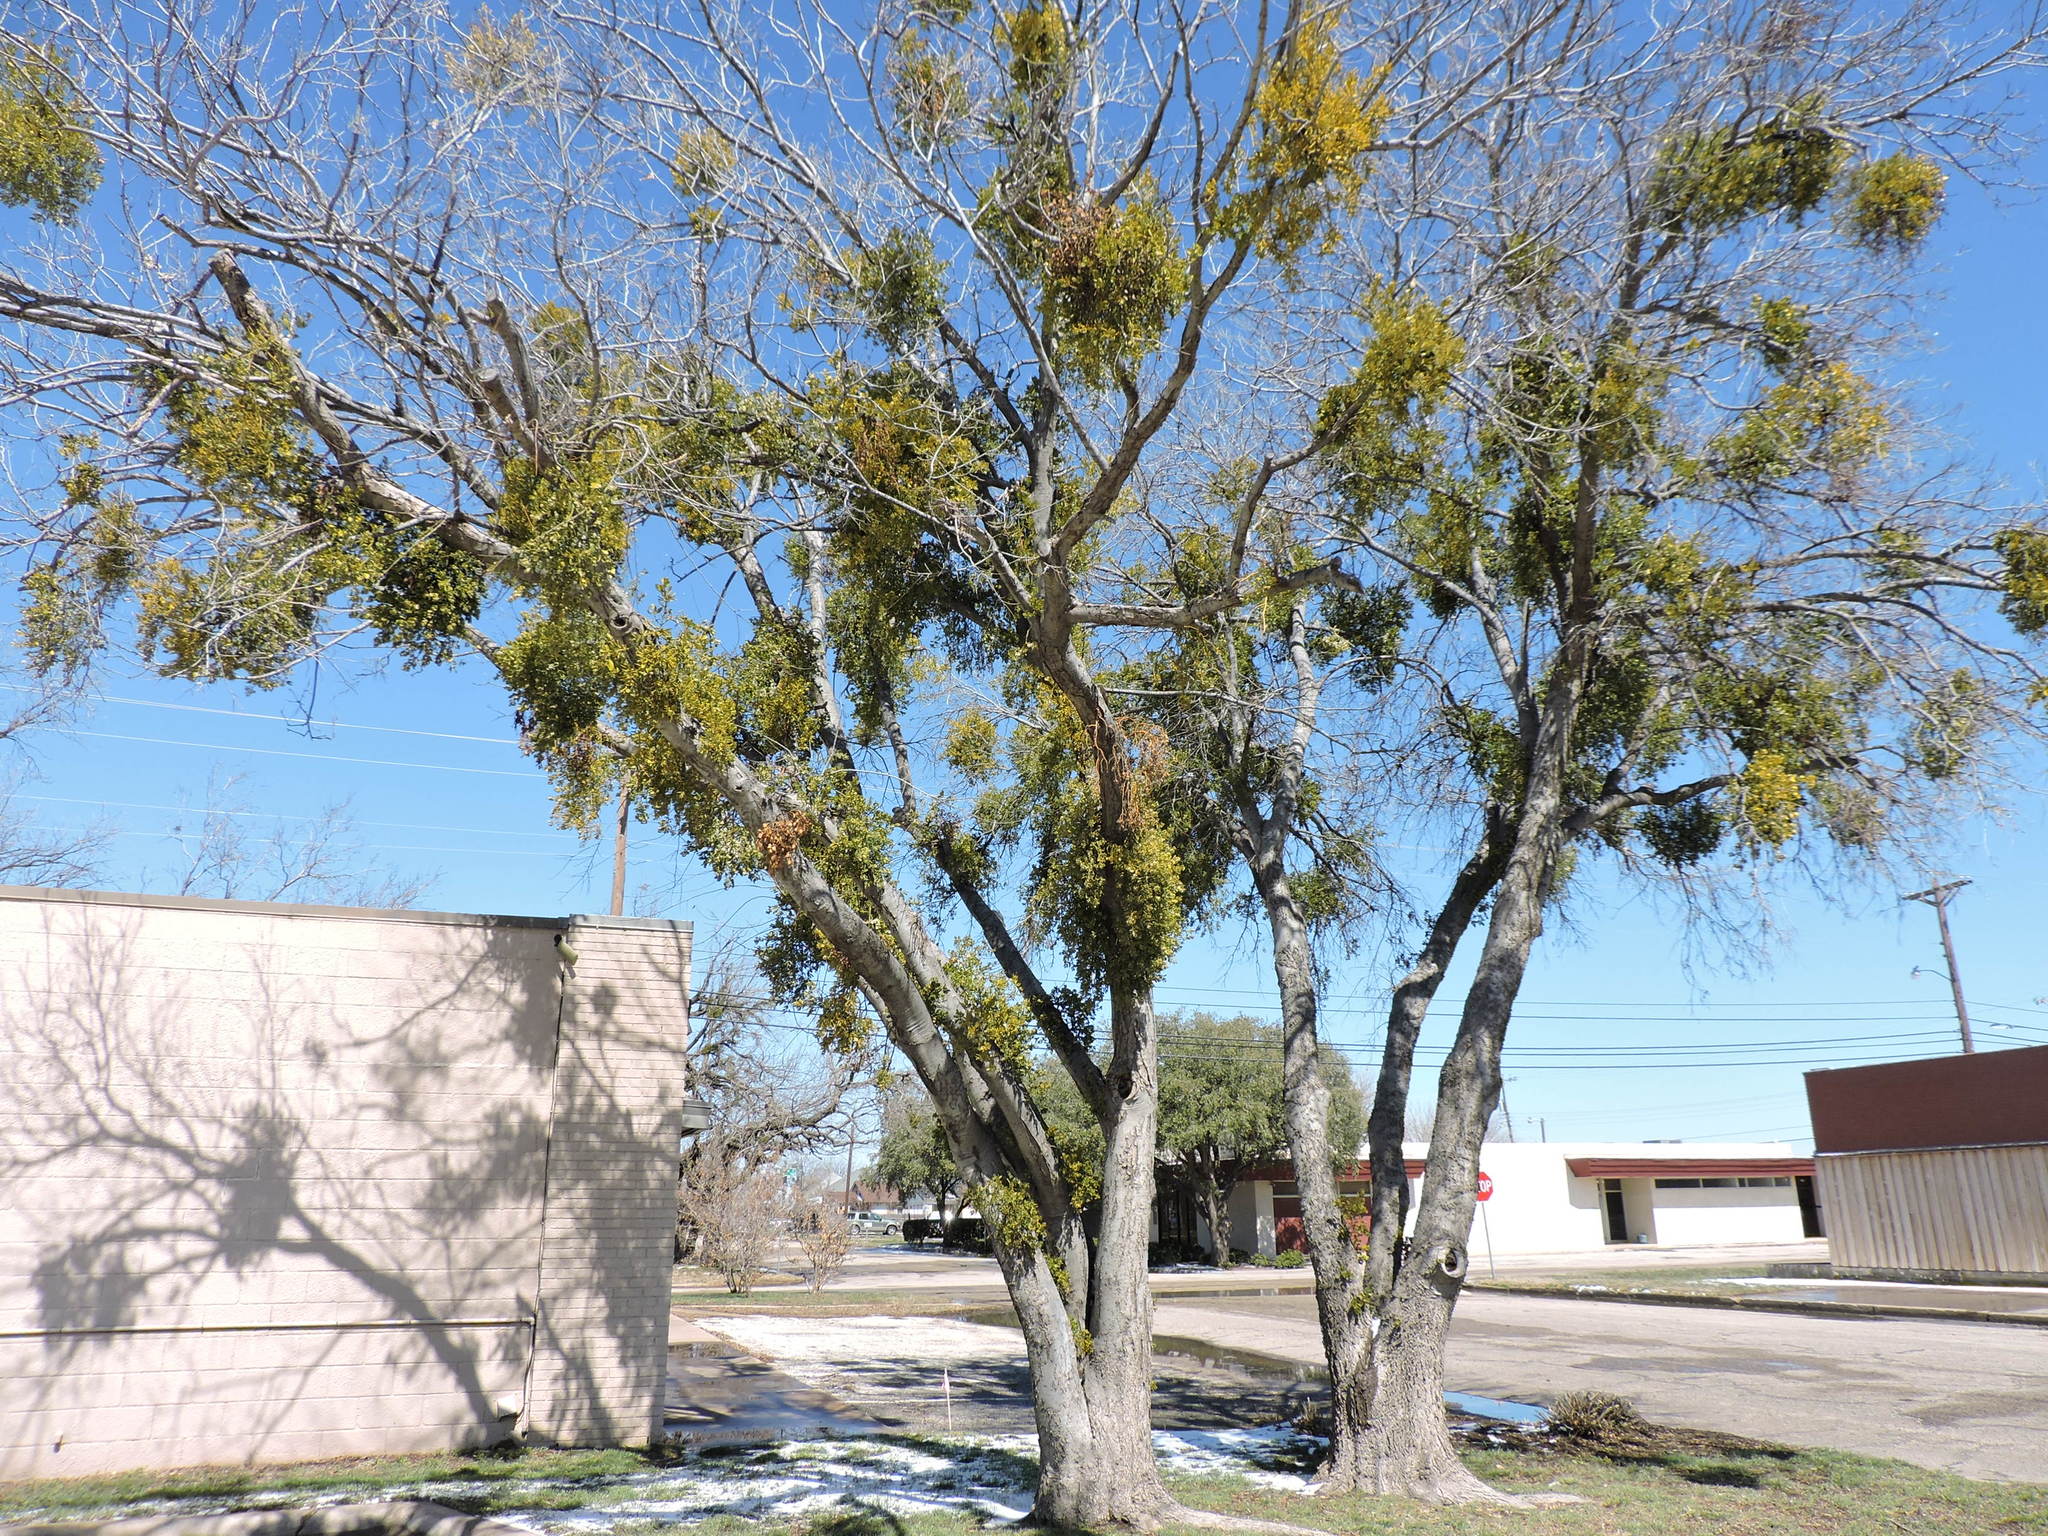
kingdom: Plantae
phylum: Tracheophyta
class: Magnoliopsida
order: Santalales
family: Viscaceae
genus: Phoradendron
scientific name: Phoradendron leucarpum
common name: Pacific mistletoe
